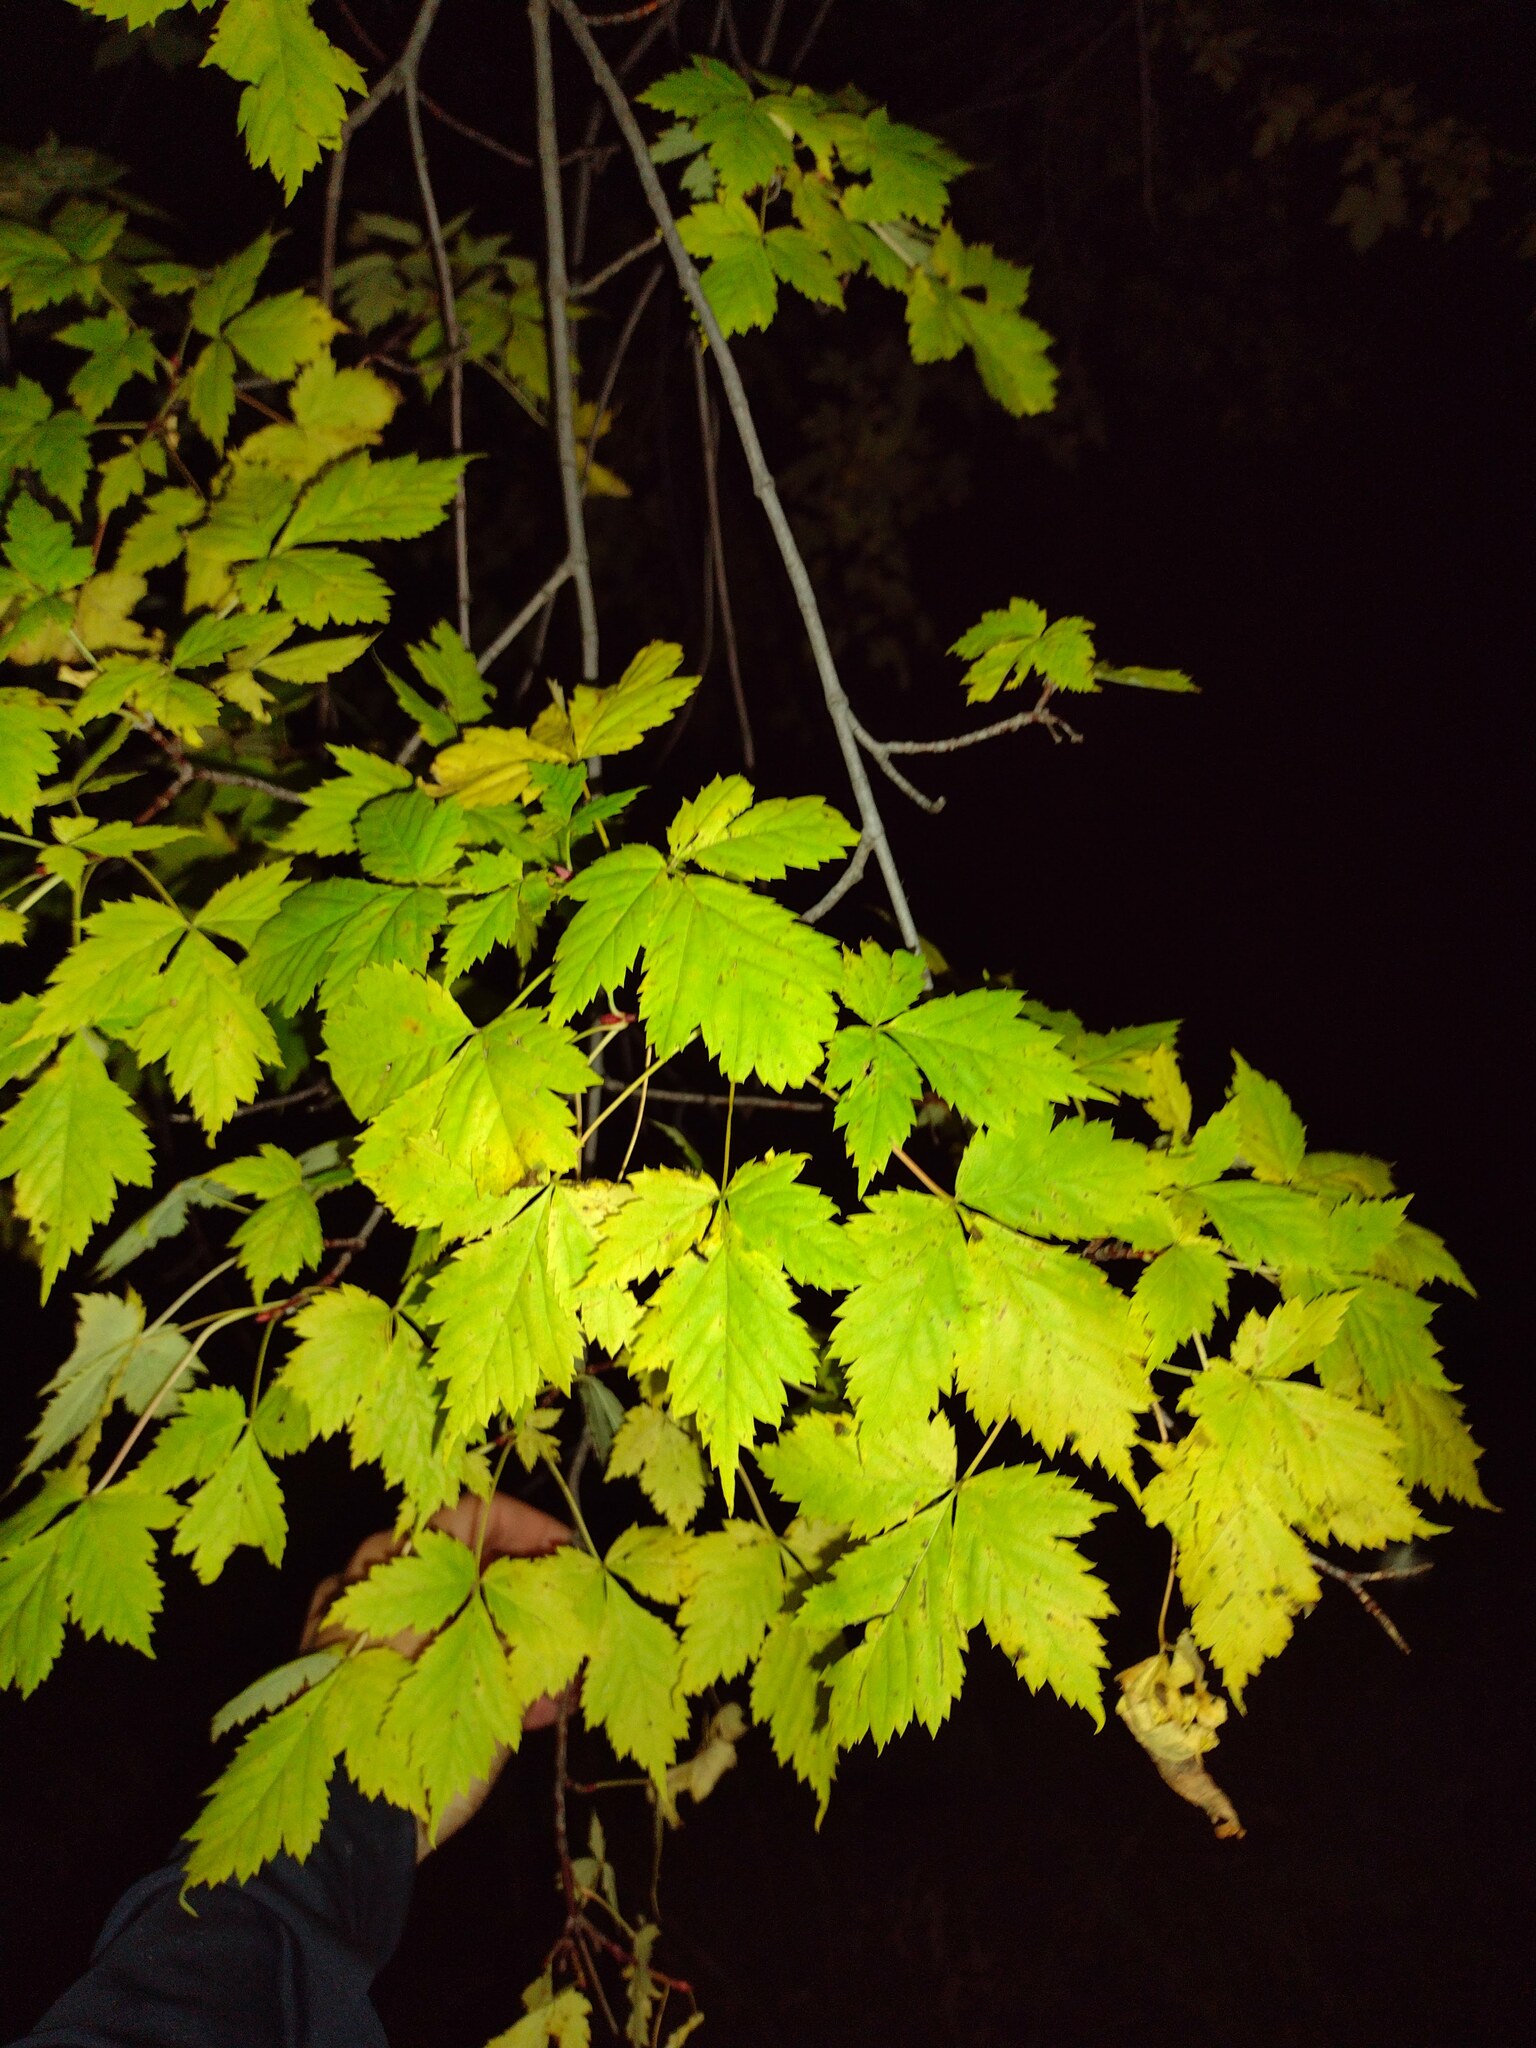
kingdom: Plantae
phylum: Tracheophyta
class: Magnoliopsida
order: Sapindales
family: Sapindaceae
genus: Acer
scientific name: Acer glabrum
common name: Rocky mountain maple
